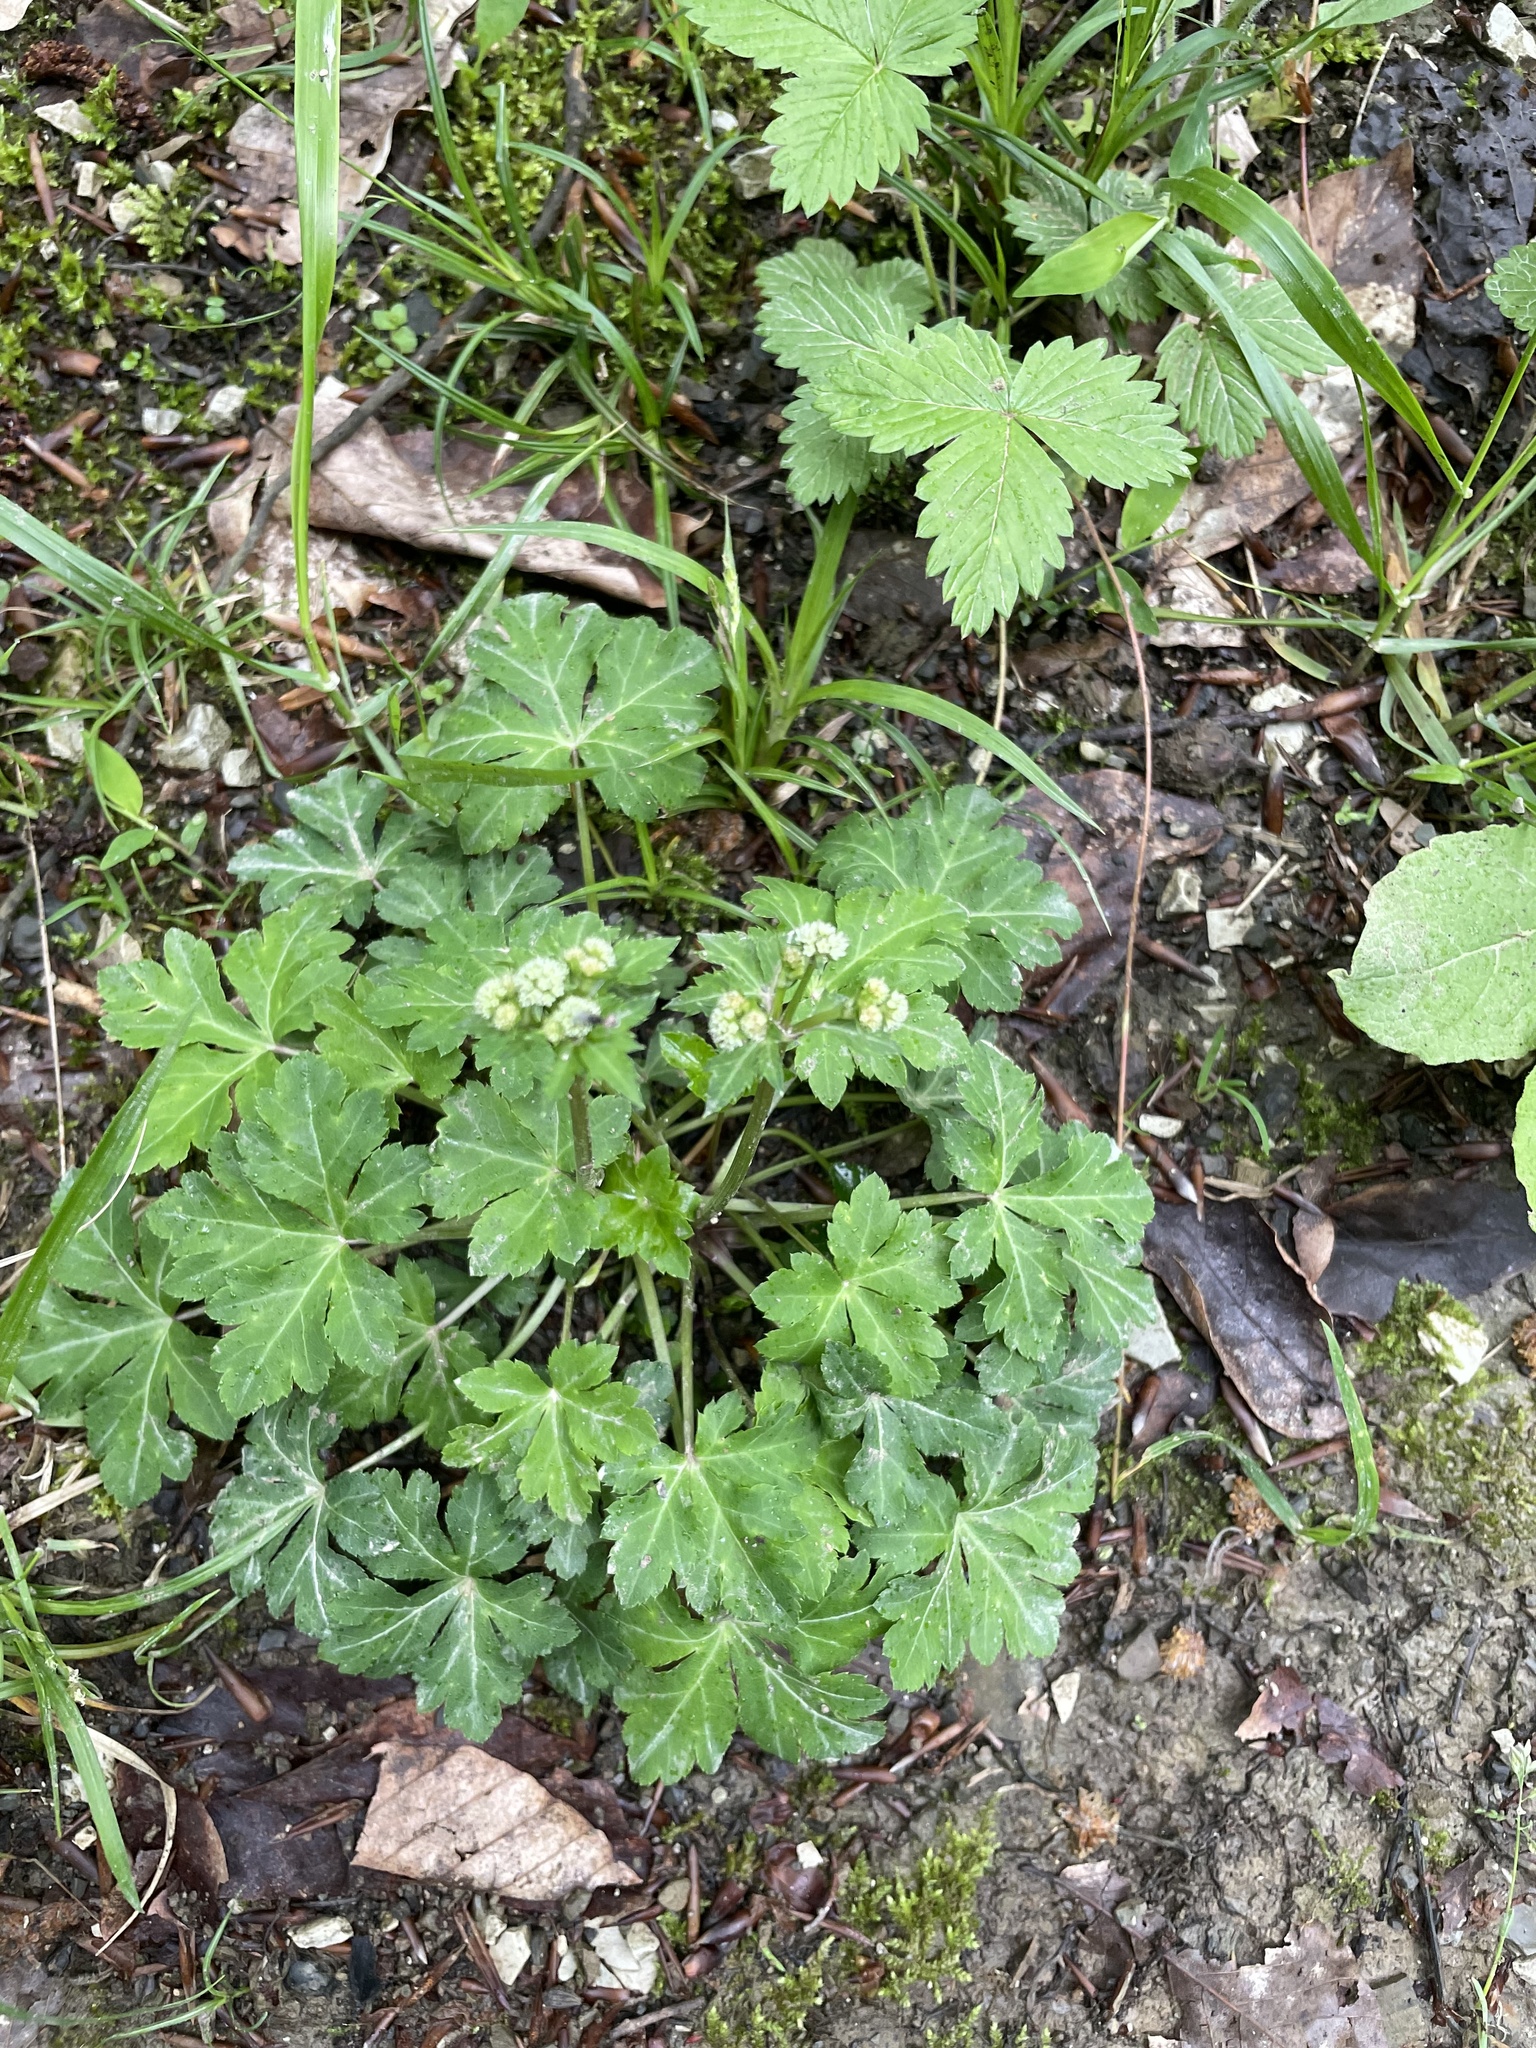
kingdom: Plantae
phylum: Tracheophyta
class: Magnoliopsida
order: Apiales
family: Apiaceae
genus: Sanicula
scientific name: Sanicula europaea
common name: Sanicle
